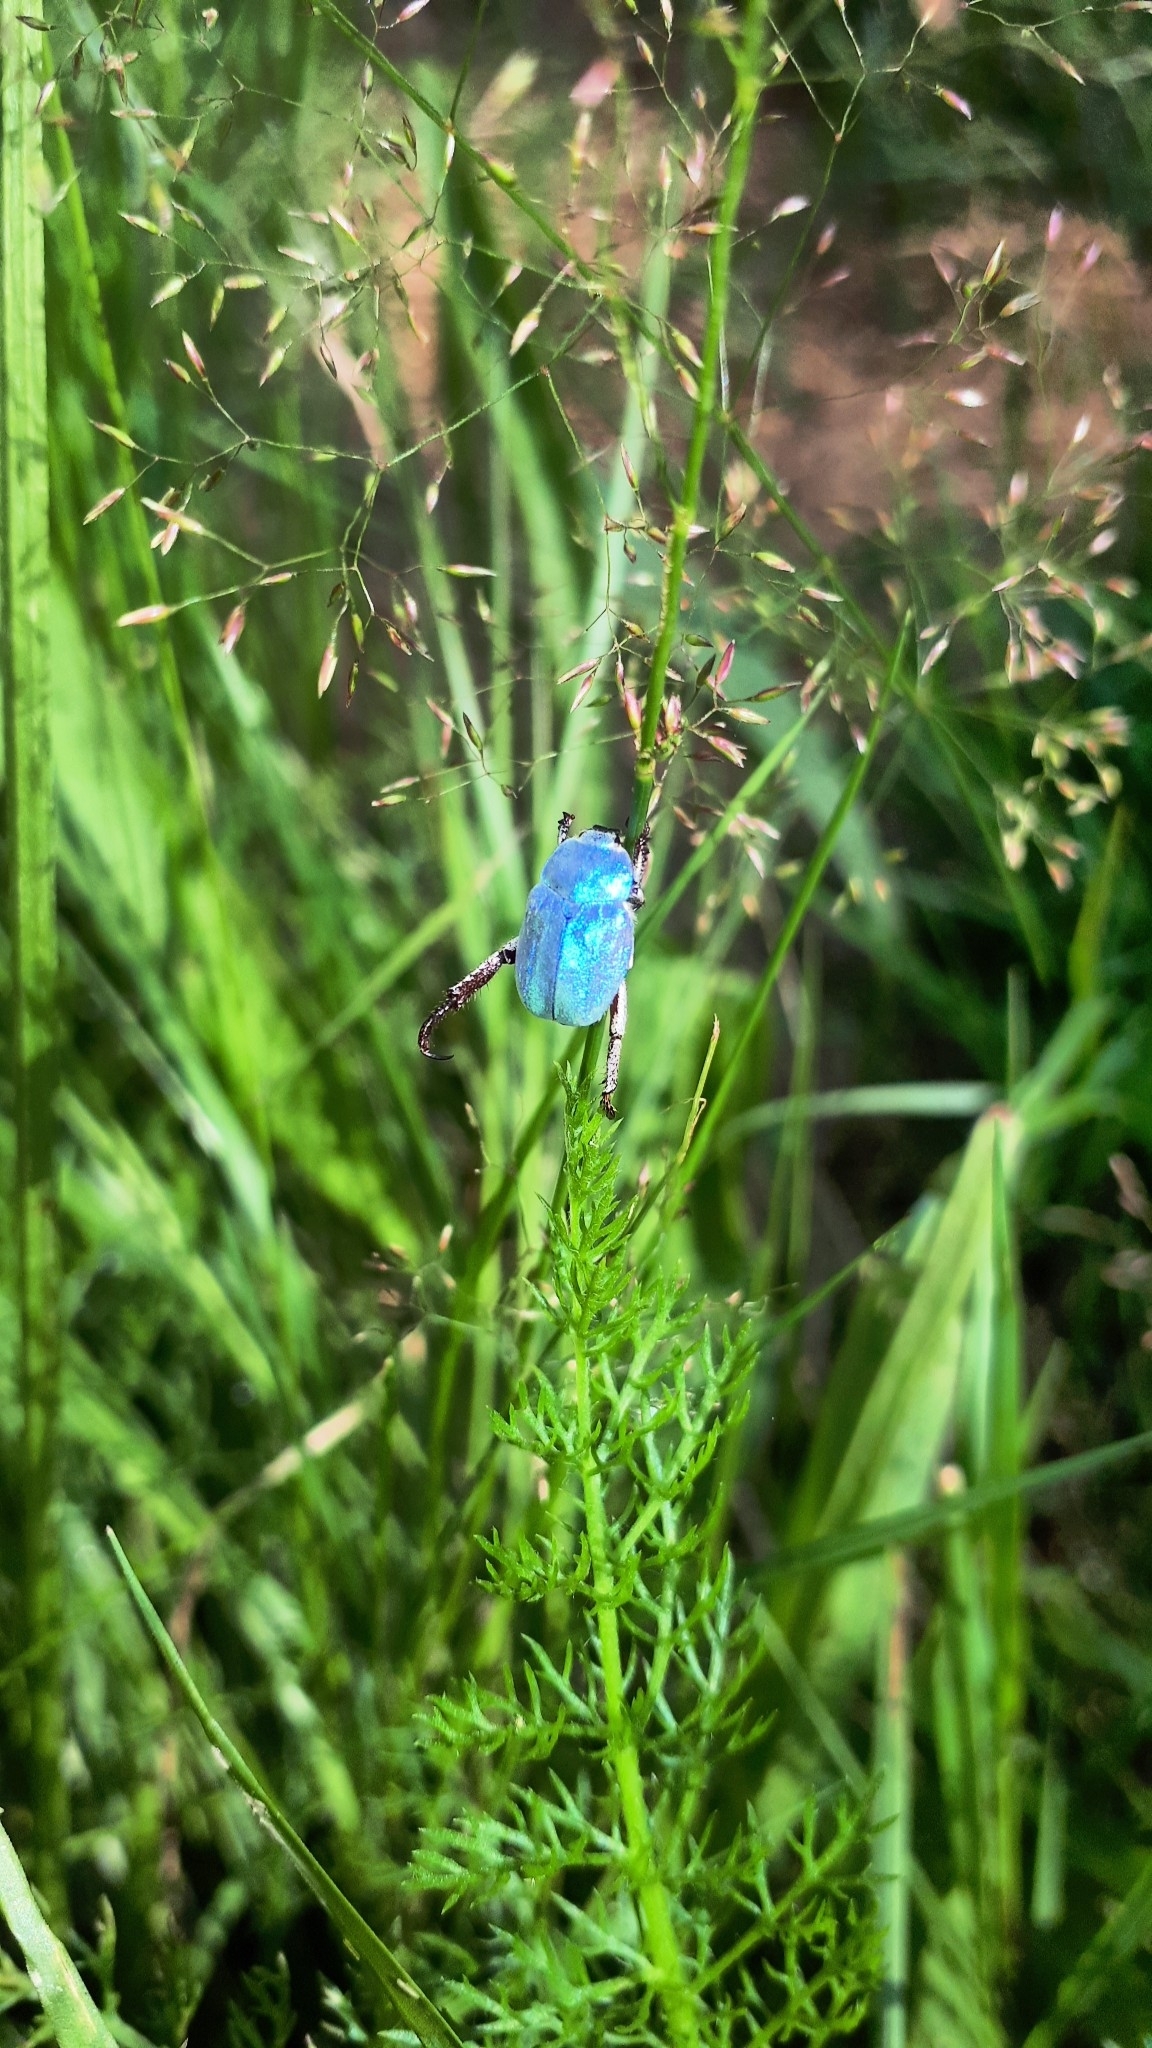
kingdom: Animalia
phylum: Arthropoda
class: Insecta
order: Coleoptera
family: Scarabaeidae
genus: Hoplia
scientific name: Hoplia coerulea
